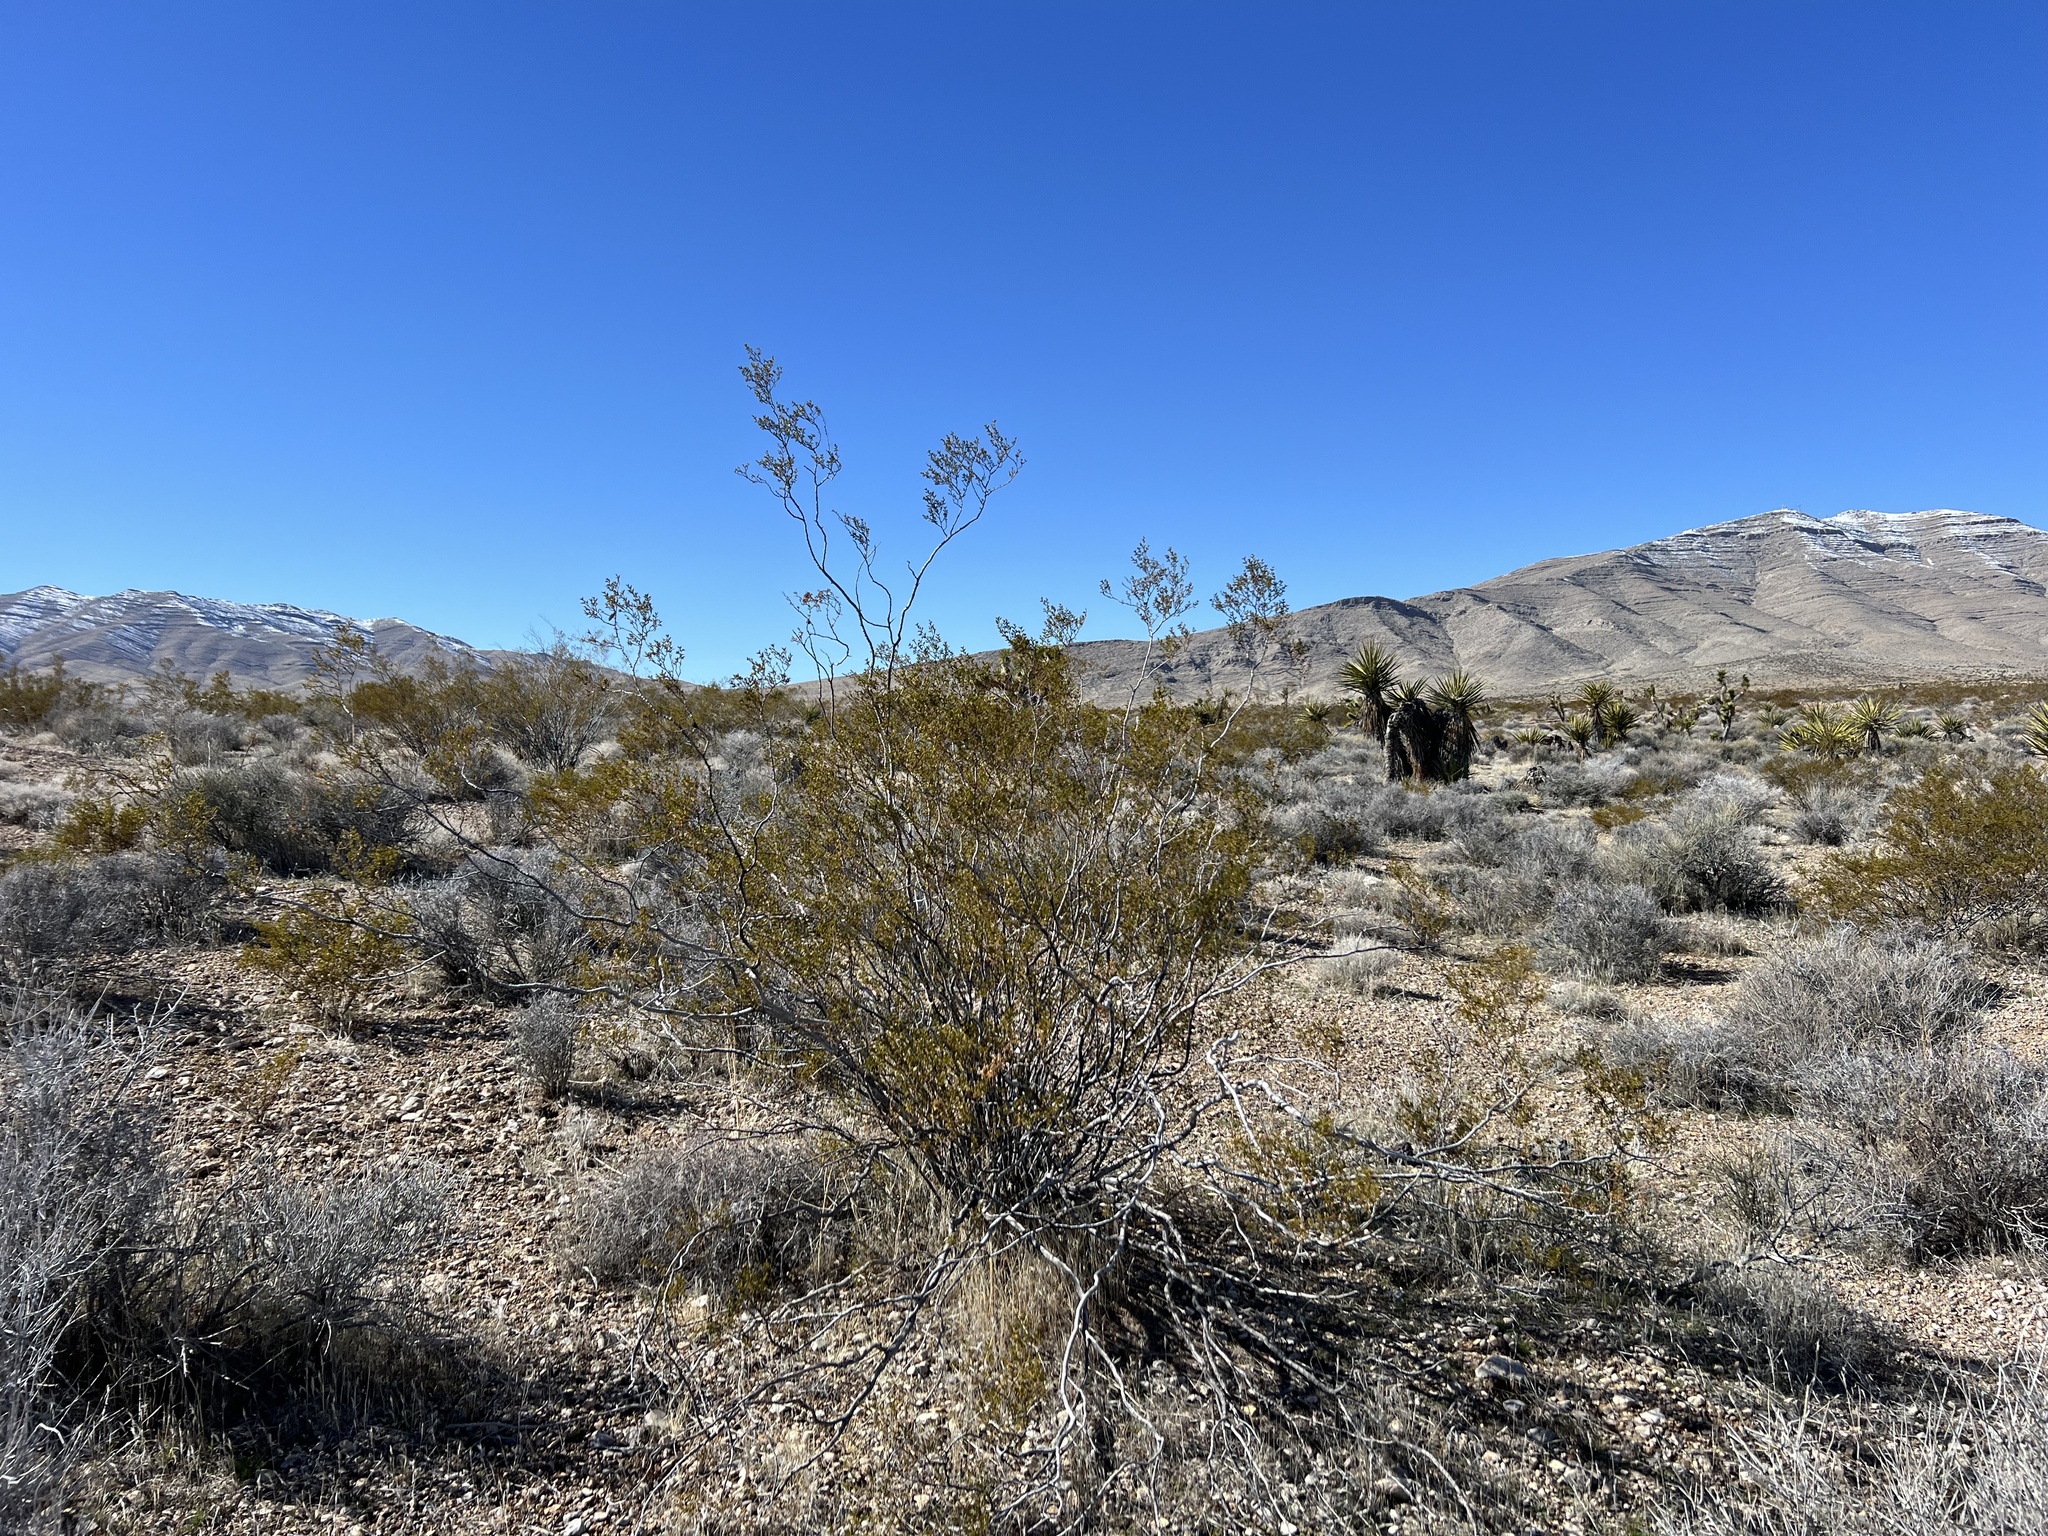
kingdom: Plantae
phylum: Tracheophyta
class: Magnoliopsida
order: Zygophyllales
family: Zygophyllaceae
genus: Larrea
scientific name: Larrea tridentata
